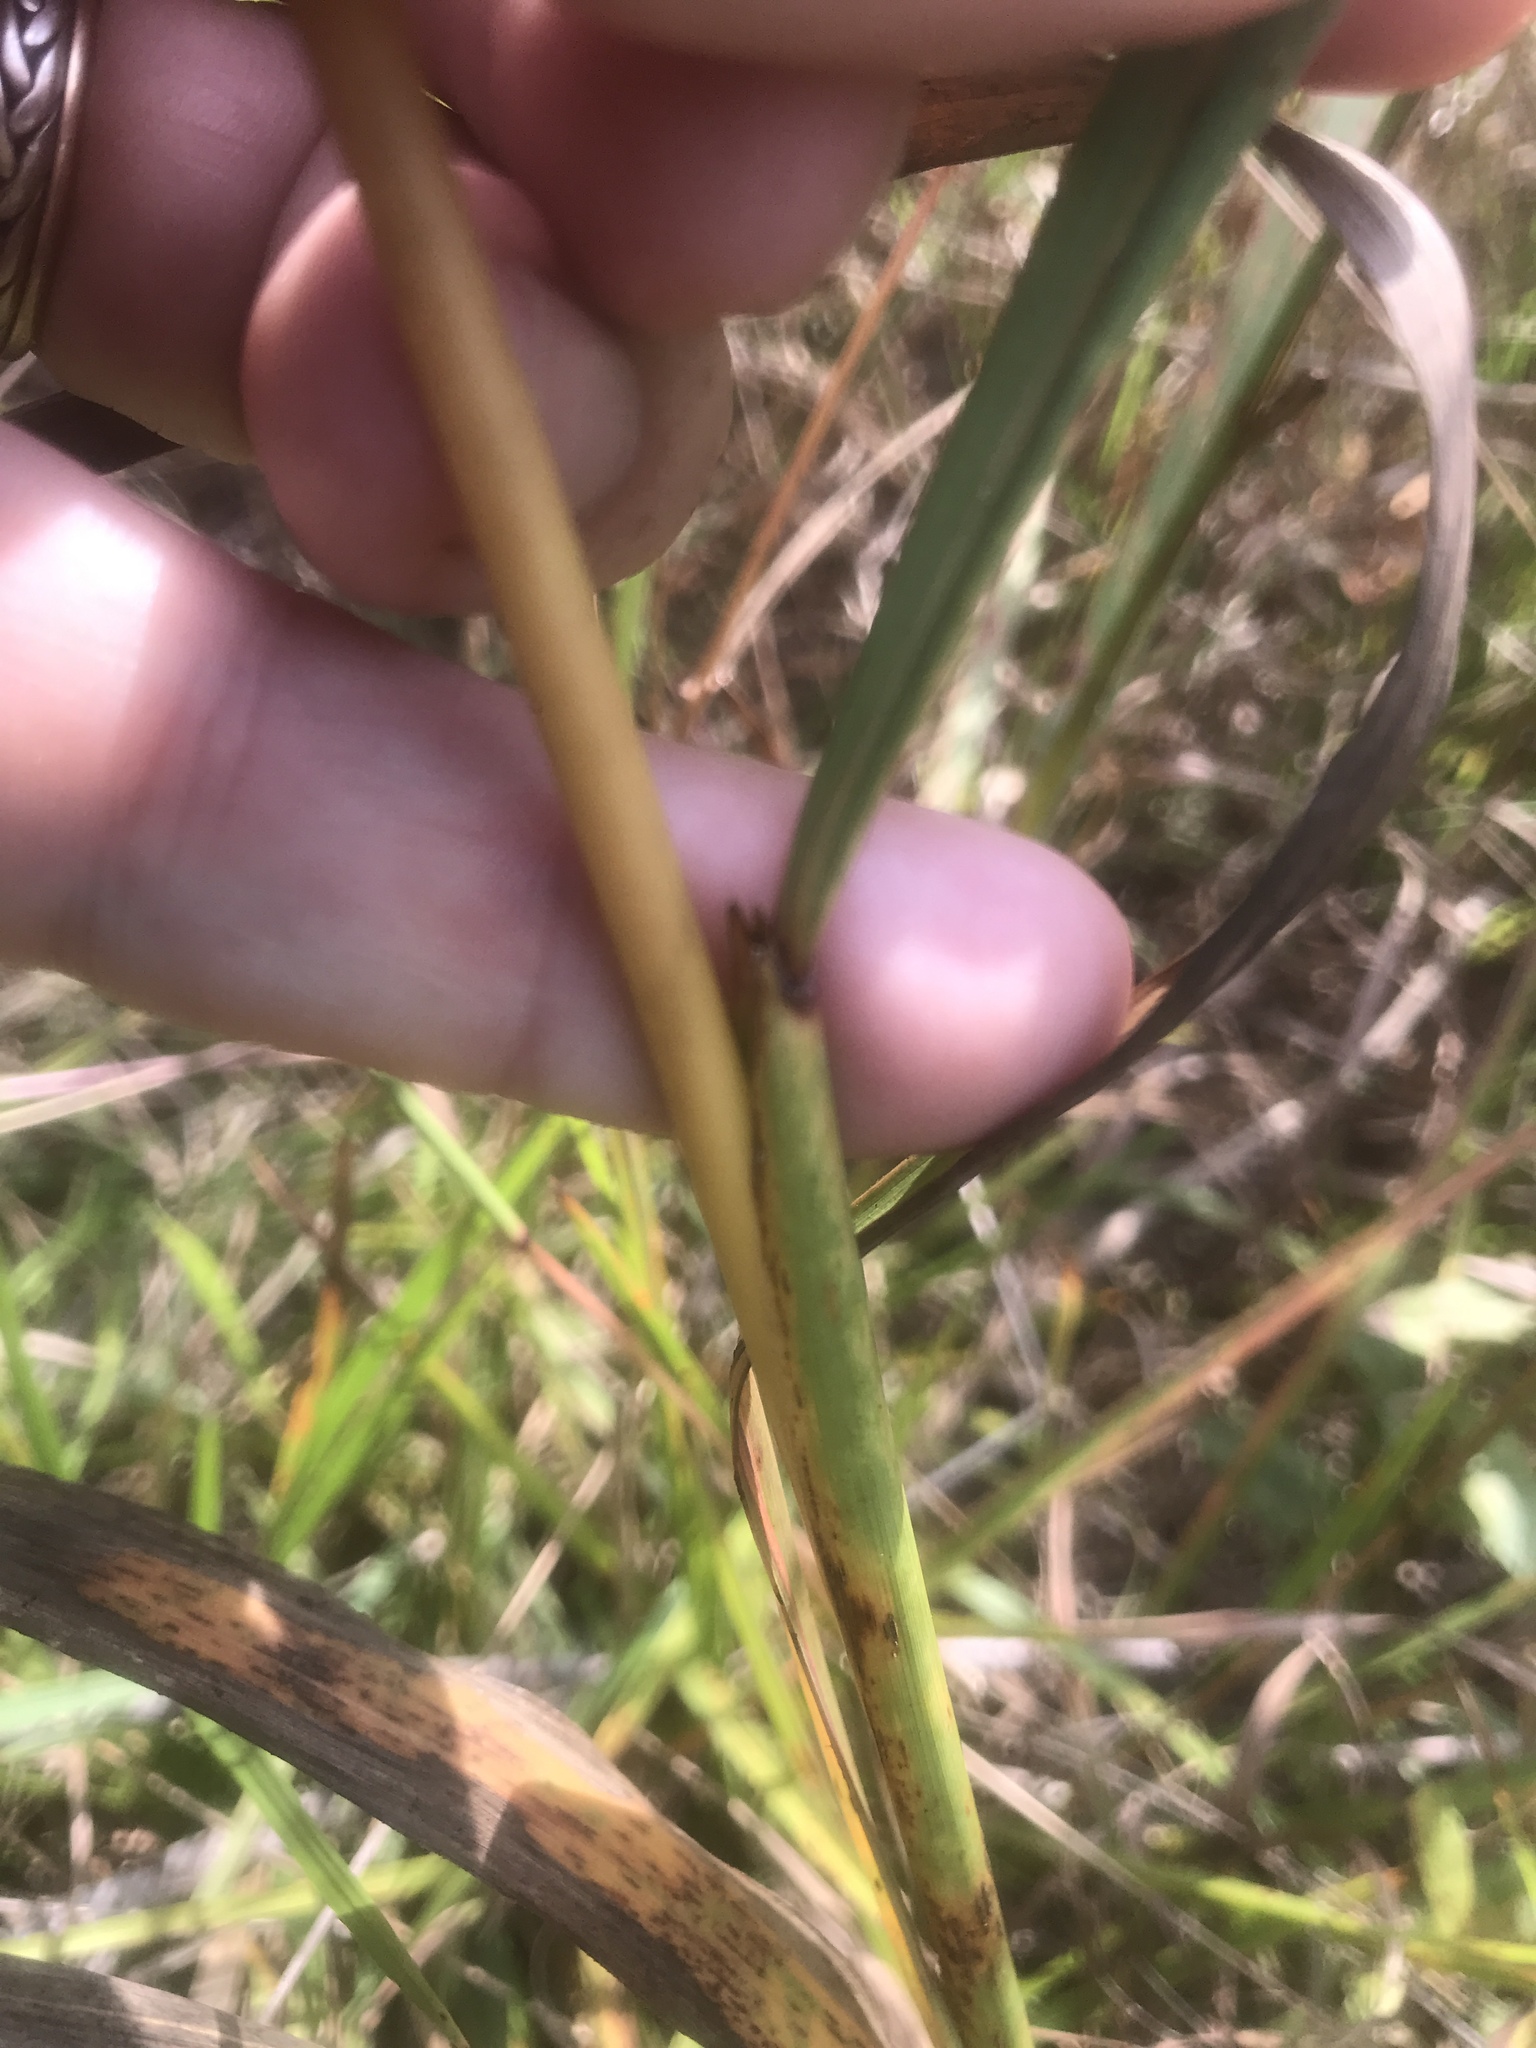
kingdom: Plantae
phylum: Tracheophyta
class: Liliopsida
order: Poales
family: Poaceae
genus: Sorghastrum
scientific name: Sorghastrum nutans
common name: Indian grass
